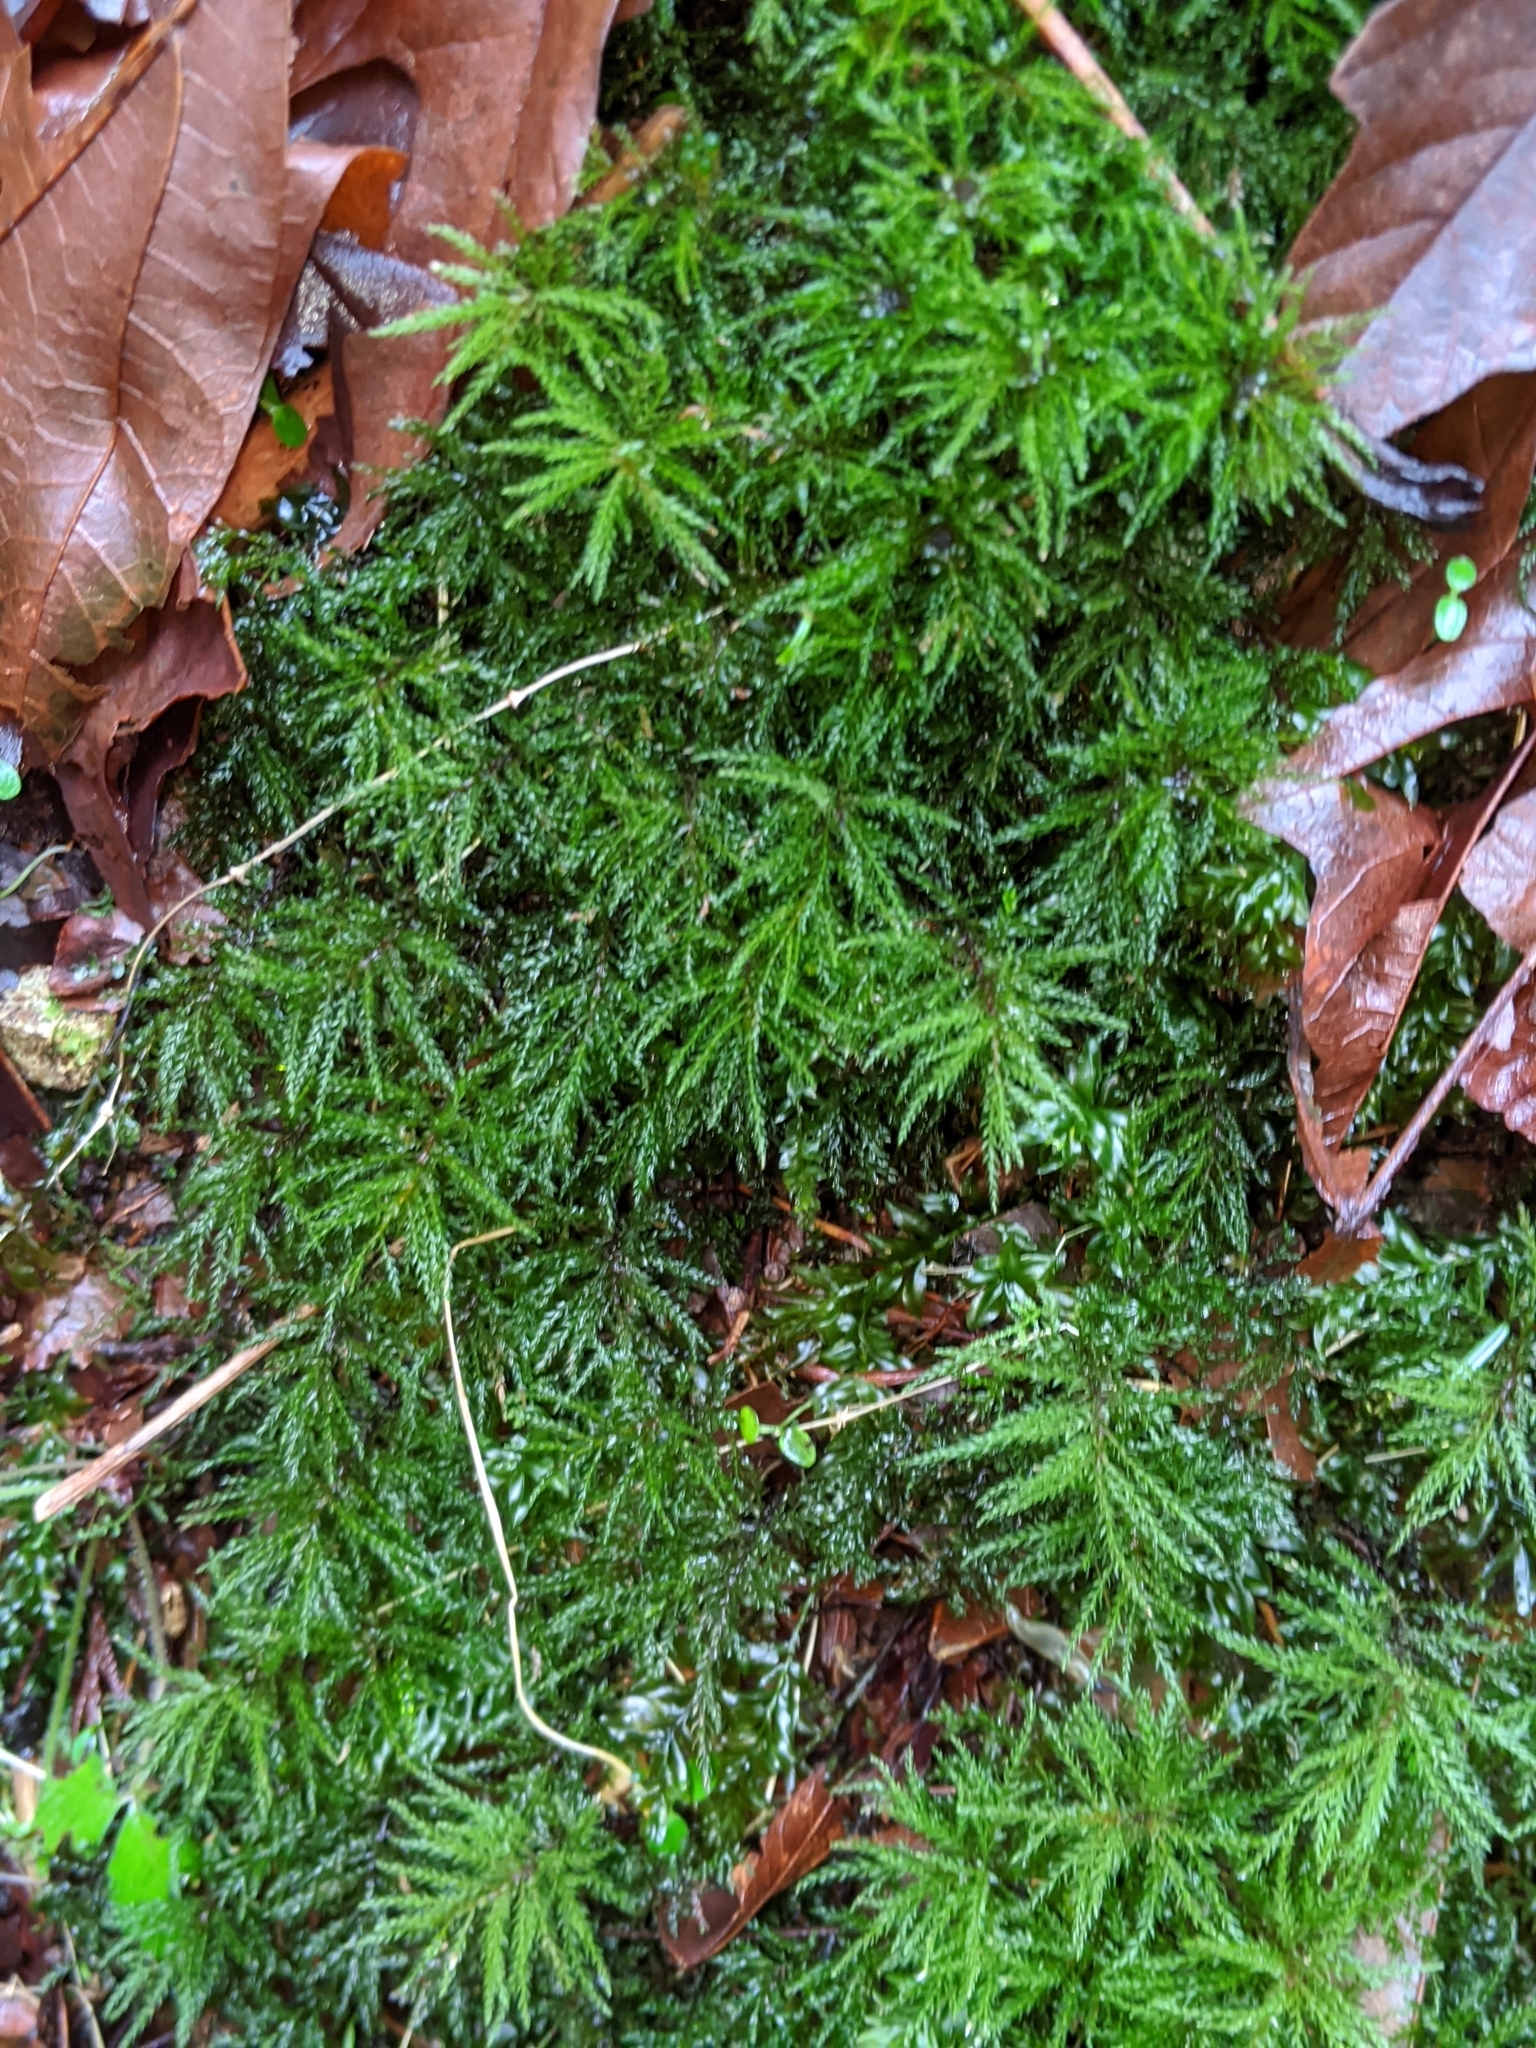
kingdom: Plantae
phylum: Bryophyta
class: Bryopsida
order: Bryales
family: Mniaceae
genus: Leucolepis
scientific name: Leucolepis acanthoneura
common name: Leucolepis umbrella moss
